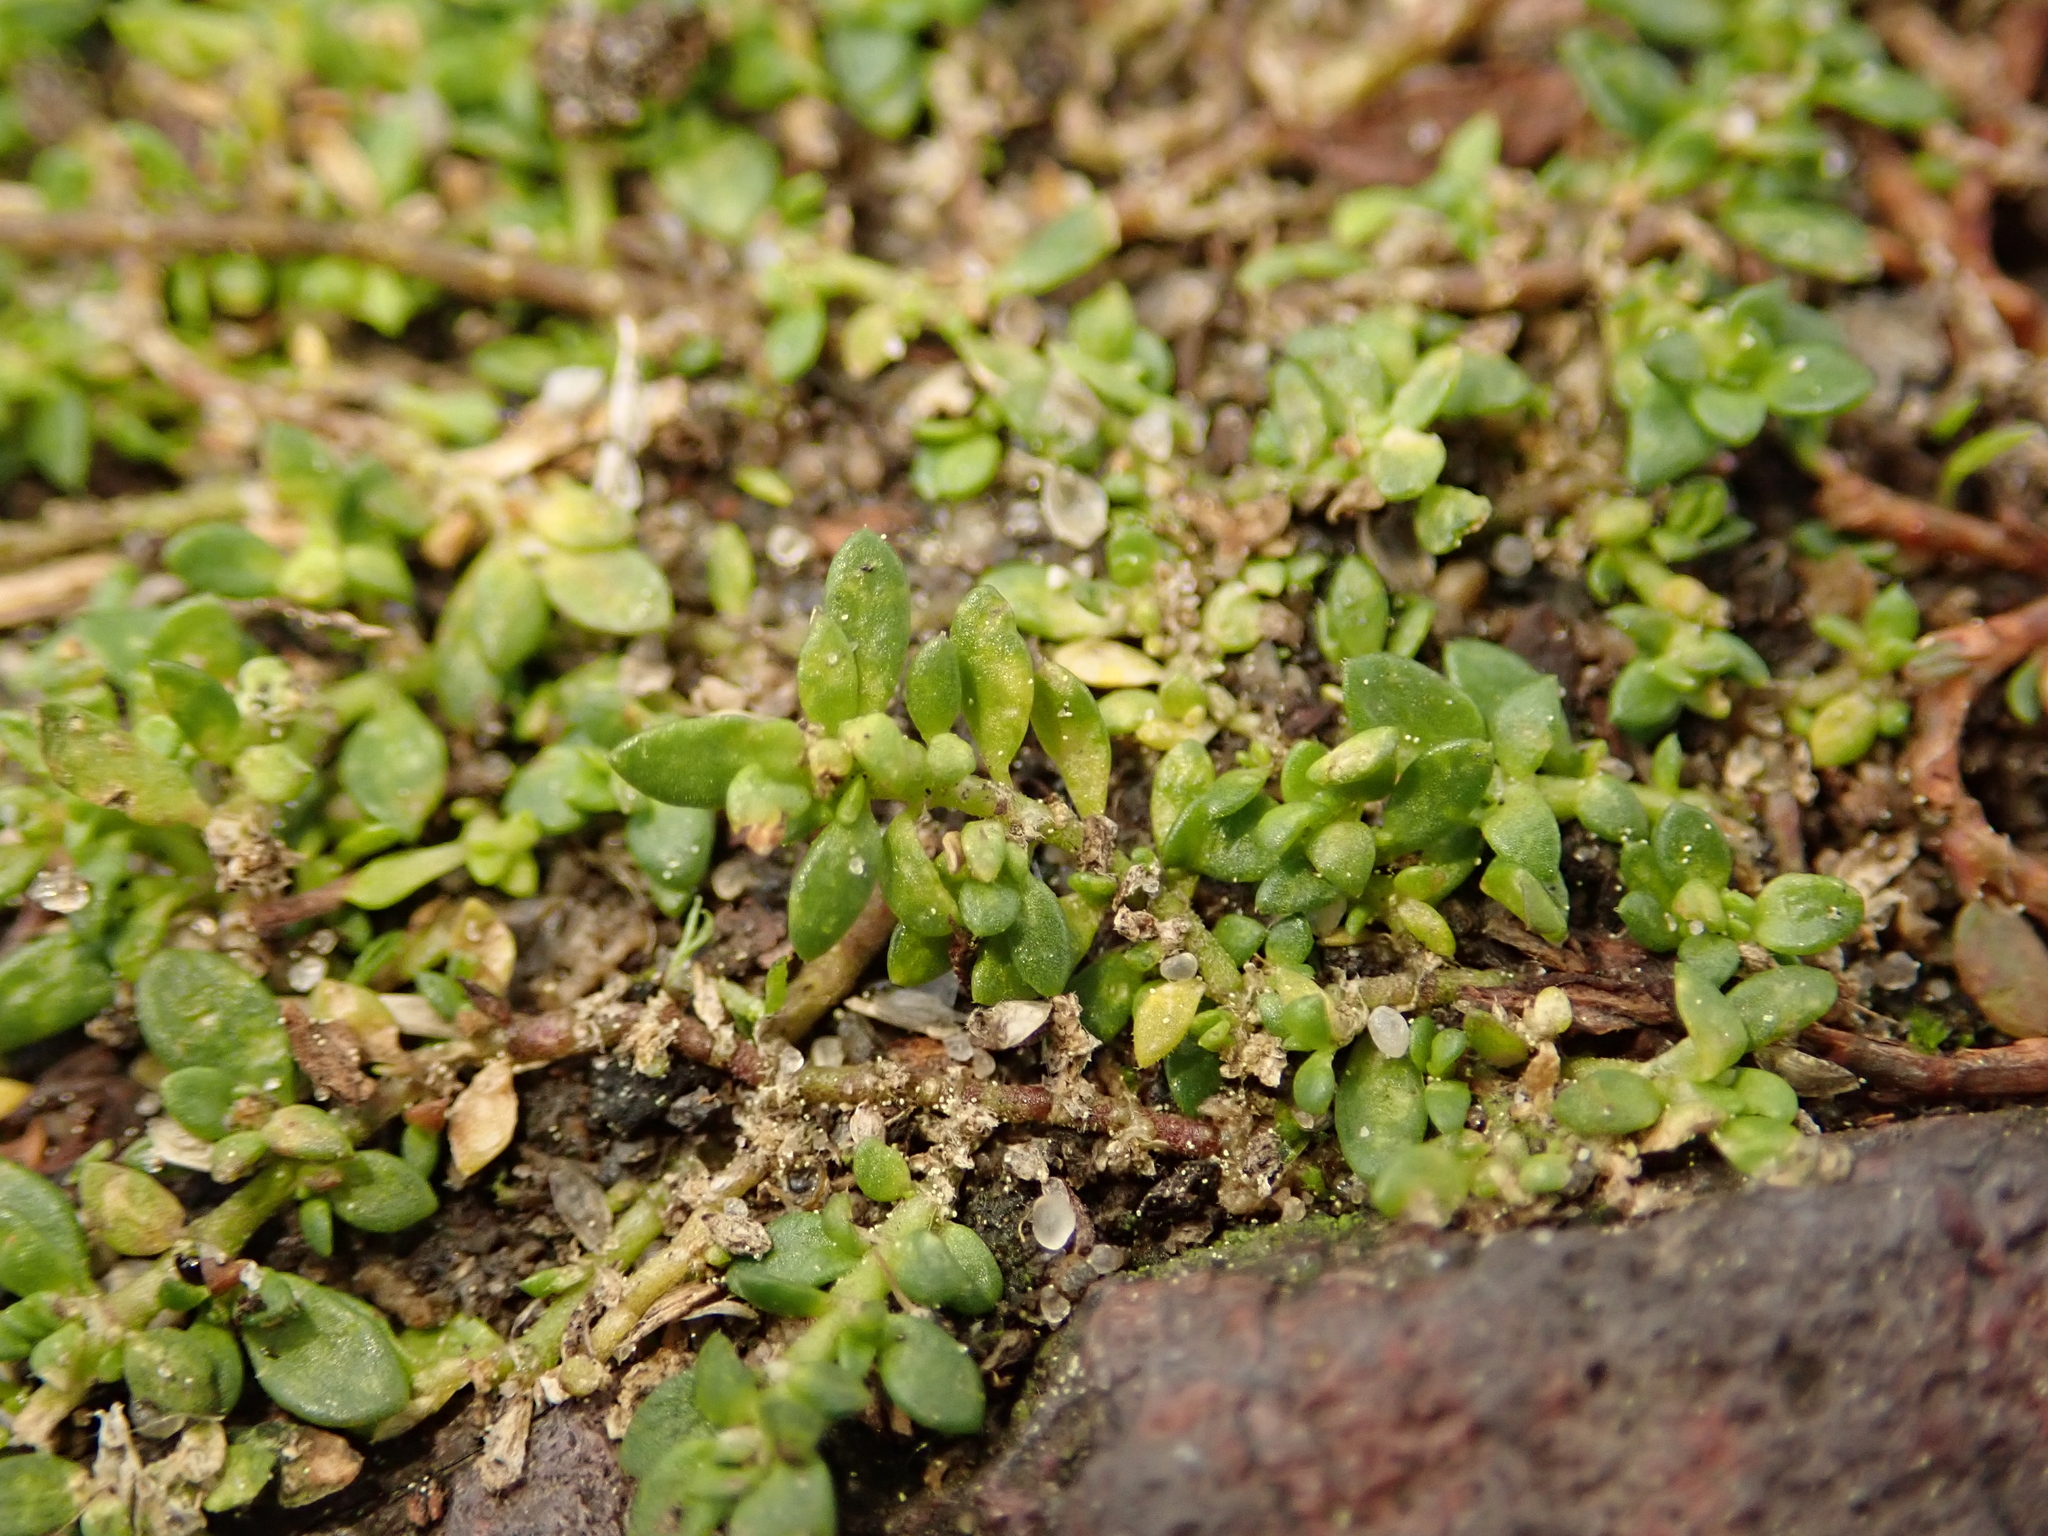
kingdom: Plantae
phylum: Tracheophyta
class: Magnoliopsida
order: Caryophyllales
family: Caryophyllaceae
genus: Herniaria
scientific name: Herniaria glabra
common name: Smooth rupturewort
